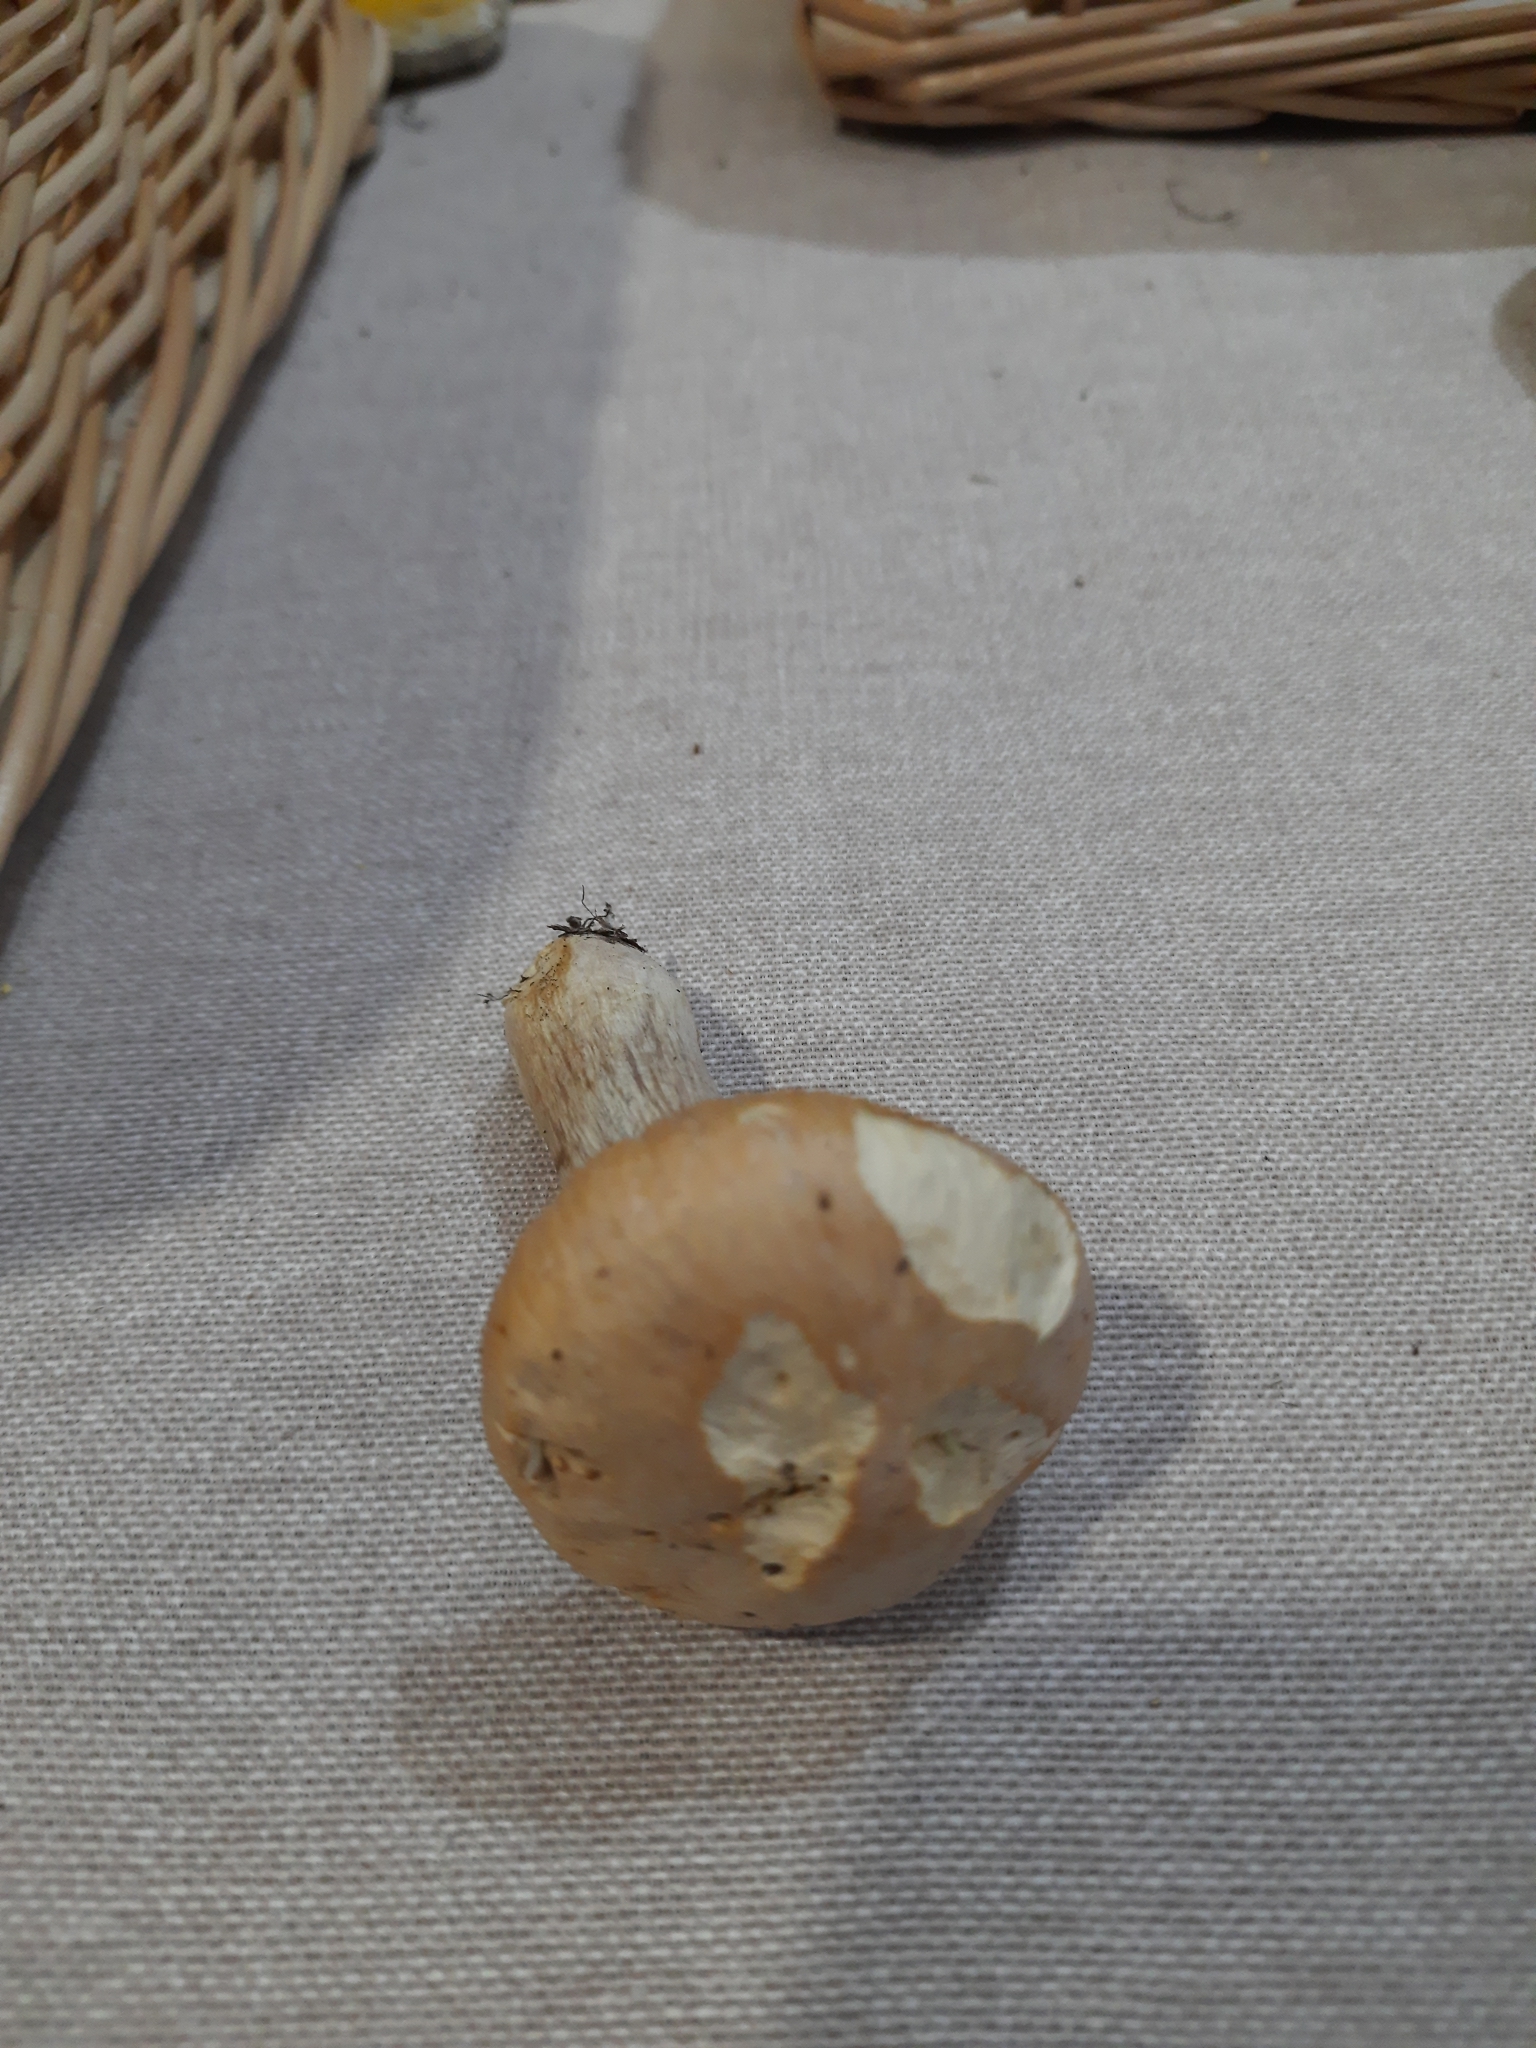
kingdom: Fungi
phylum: Basidiomycota
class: Agaricomycetes
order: Agaricales
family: Cortinariaceae
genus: Cortinarius
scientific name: Cortinarius caperatus
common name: The gypsy
